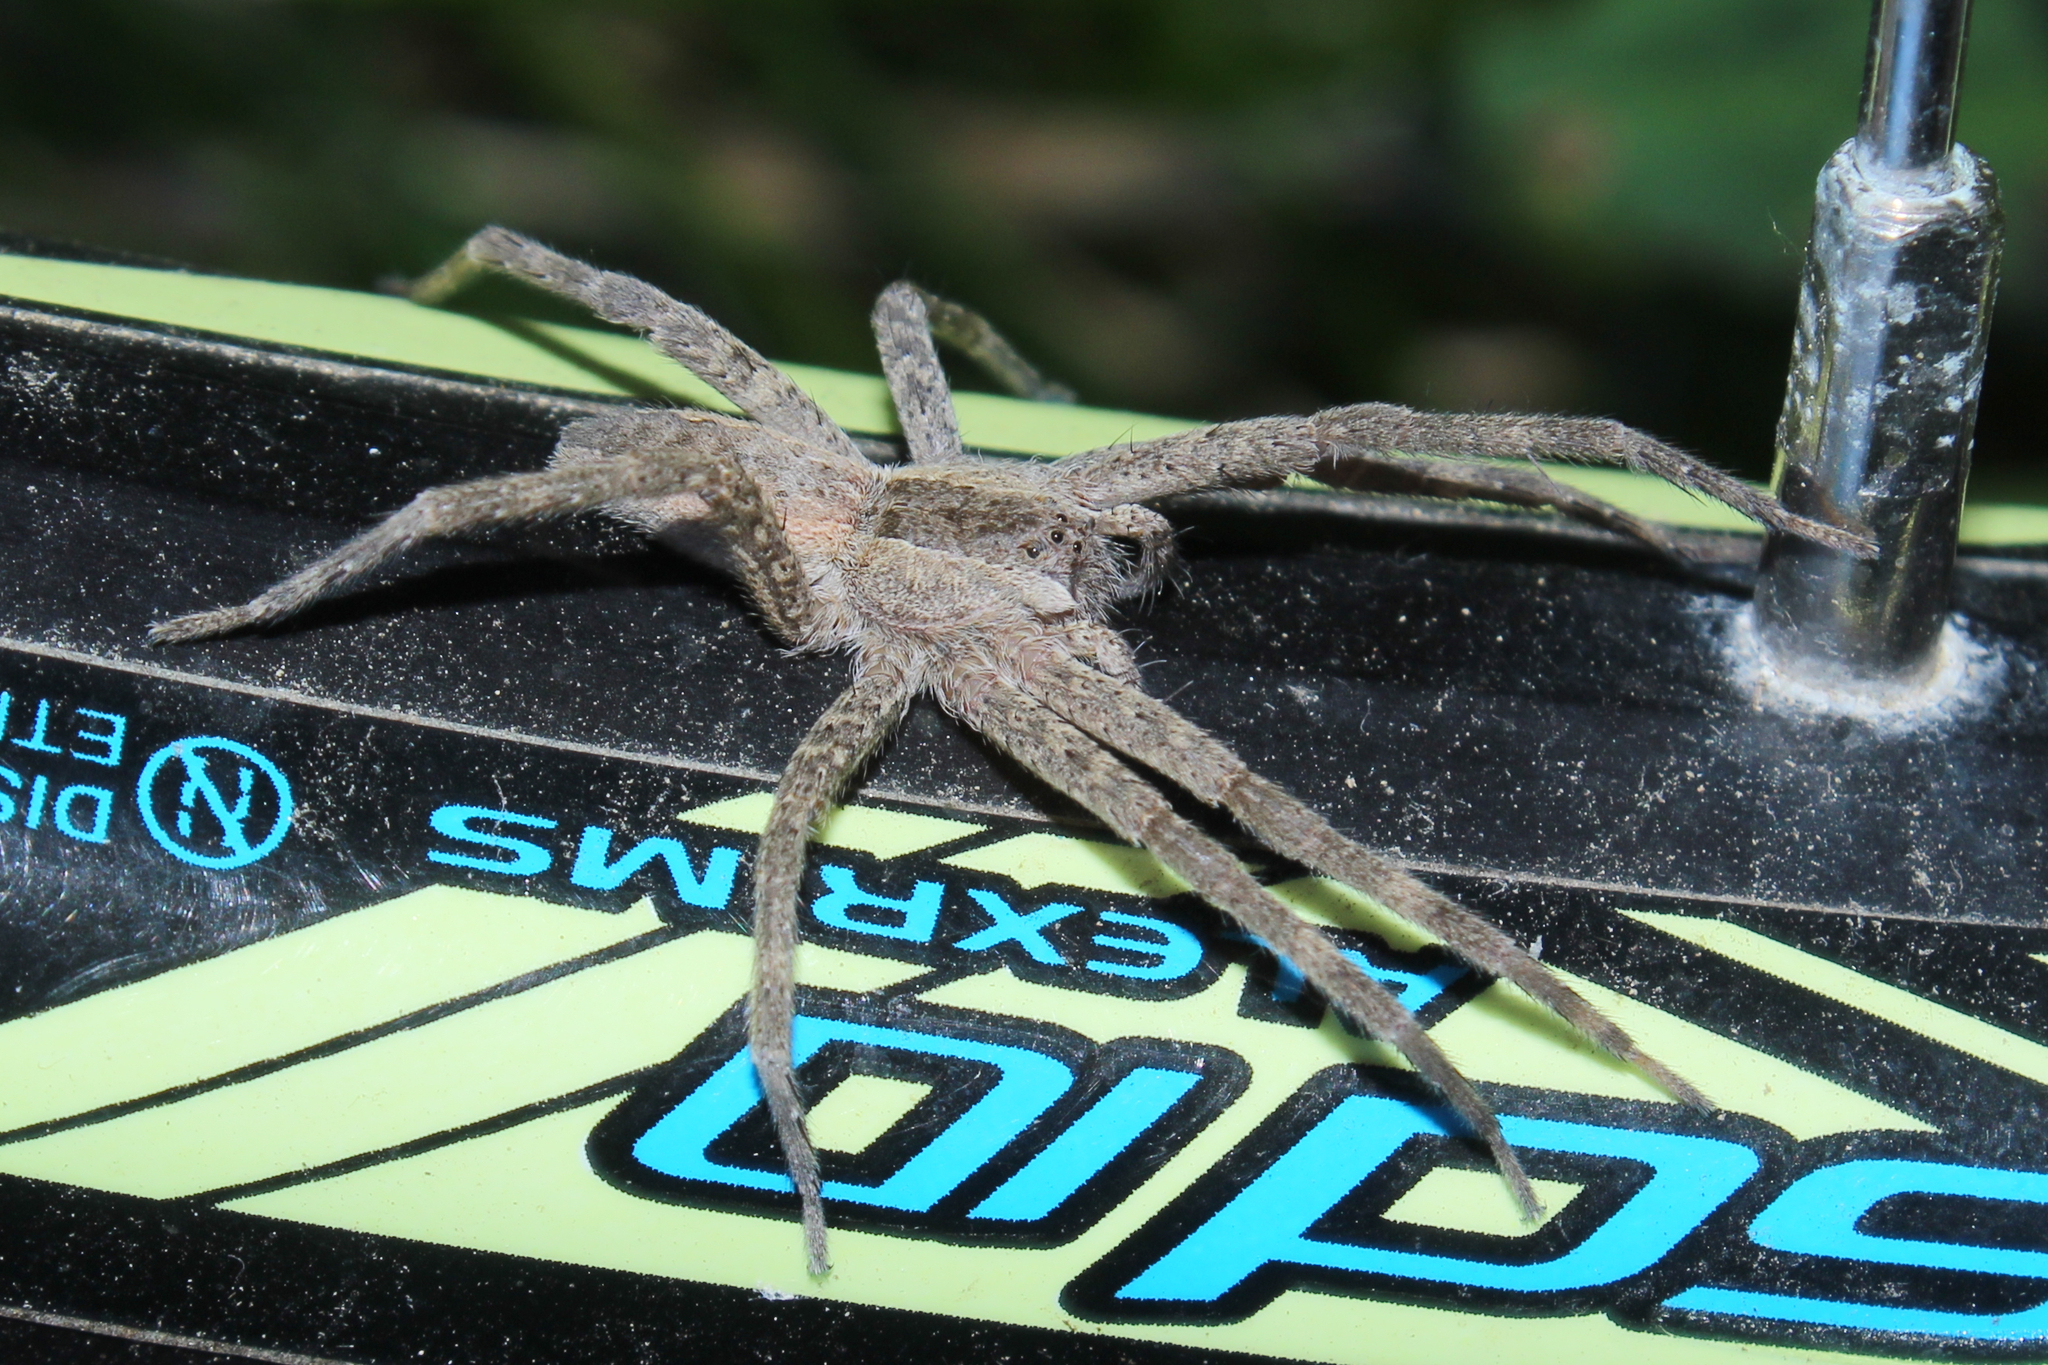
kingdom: Animalia
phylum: Arthropoda
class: Arachnida
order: Araneae
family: Pisauridae
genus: Pisaurina
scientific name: Pisaurina mira
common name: American nursery web spider
